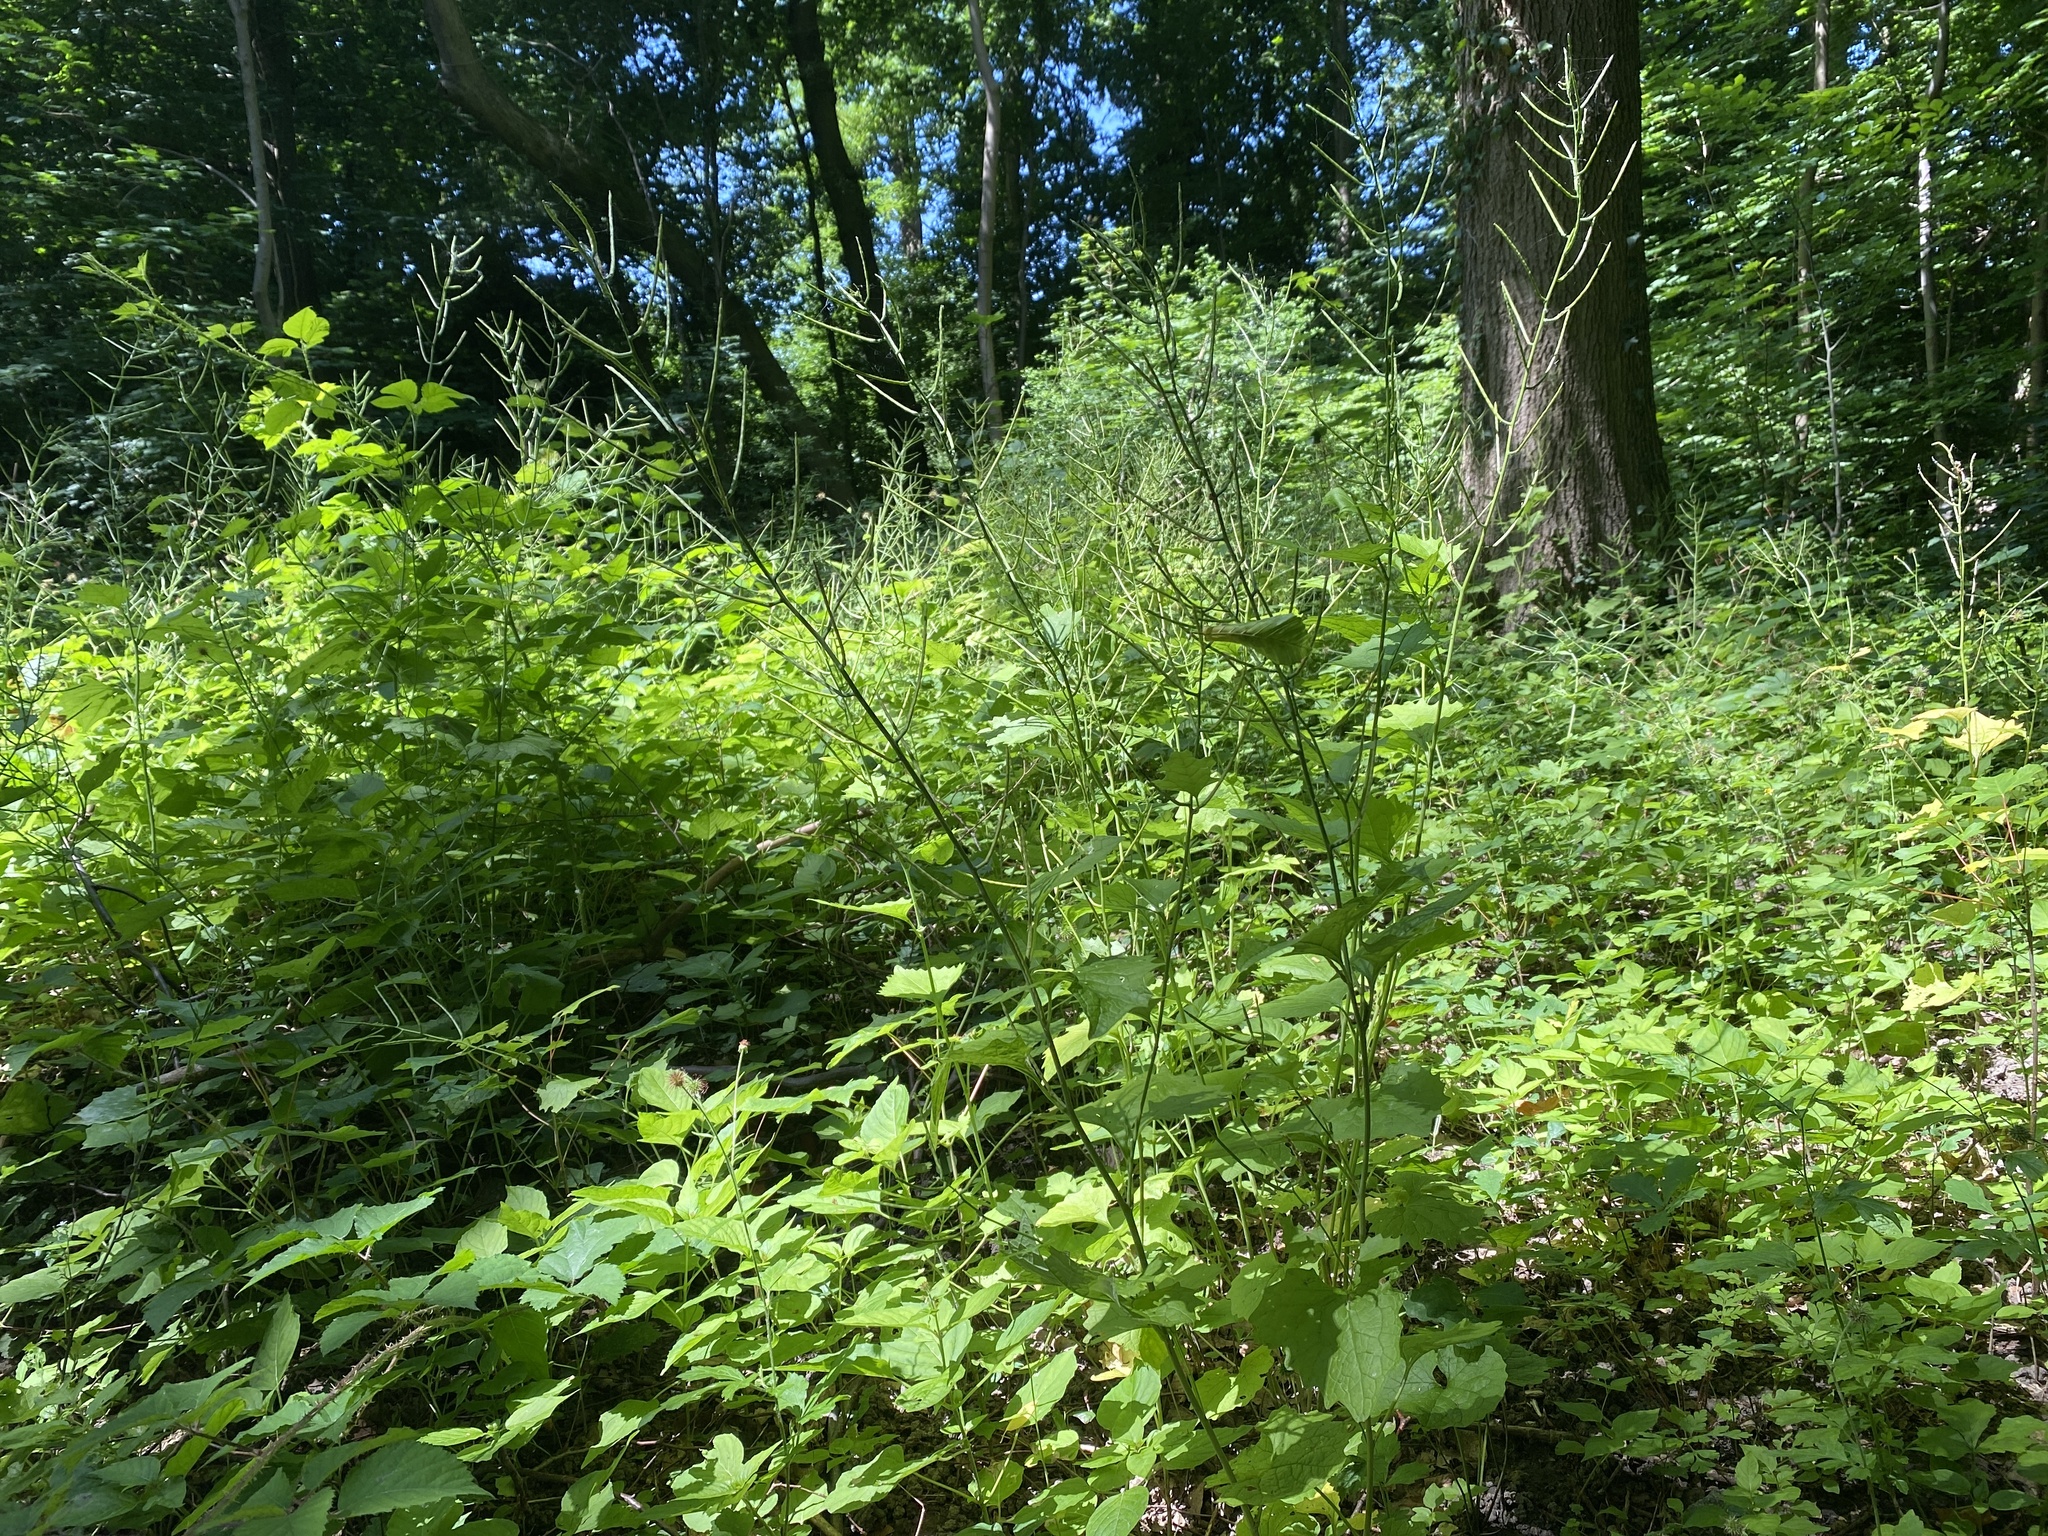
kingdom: Plantae
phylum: Tracheophyta
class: Magnoliopsida
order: Brassicales
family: Brassicaceae
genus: Alliaria
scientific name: Alliaria petiolata
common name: Garlic mustard
